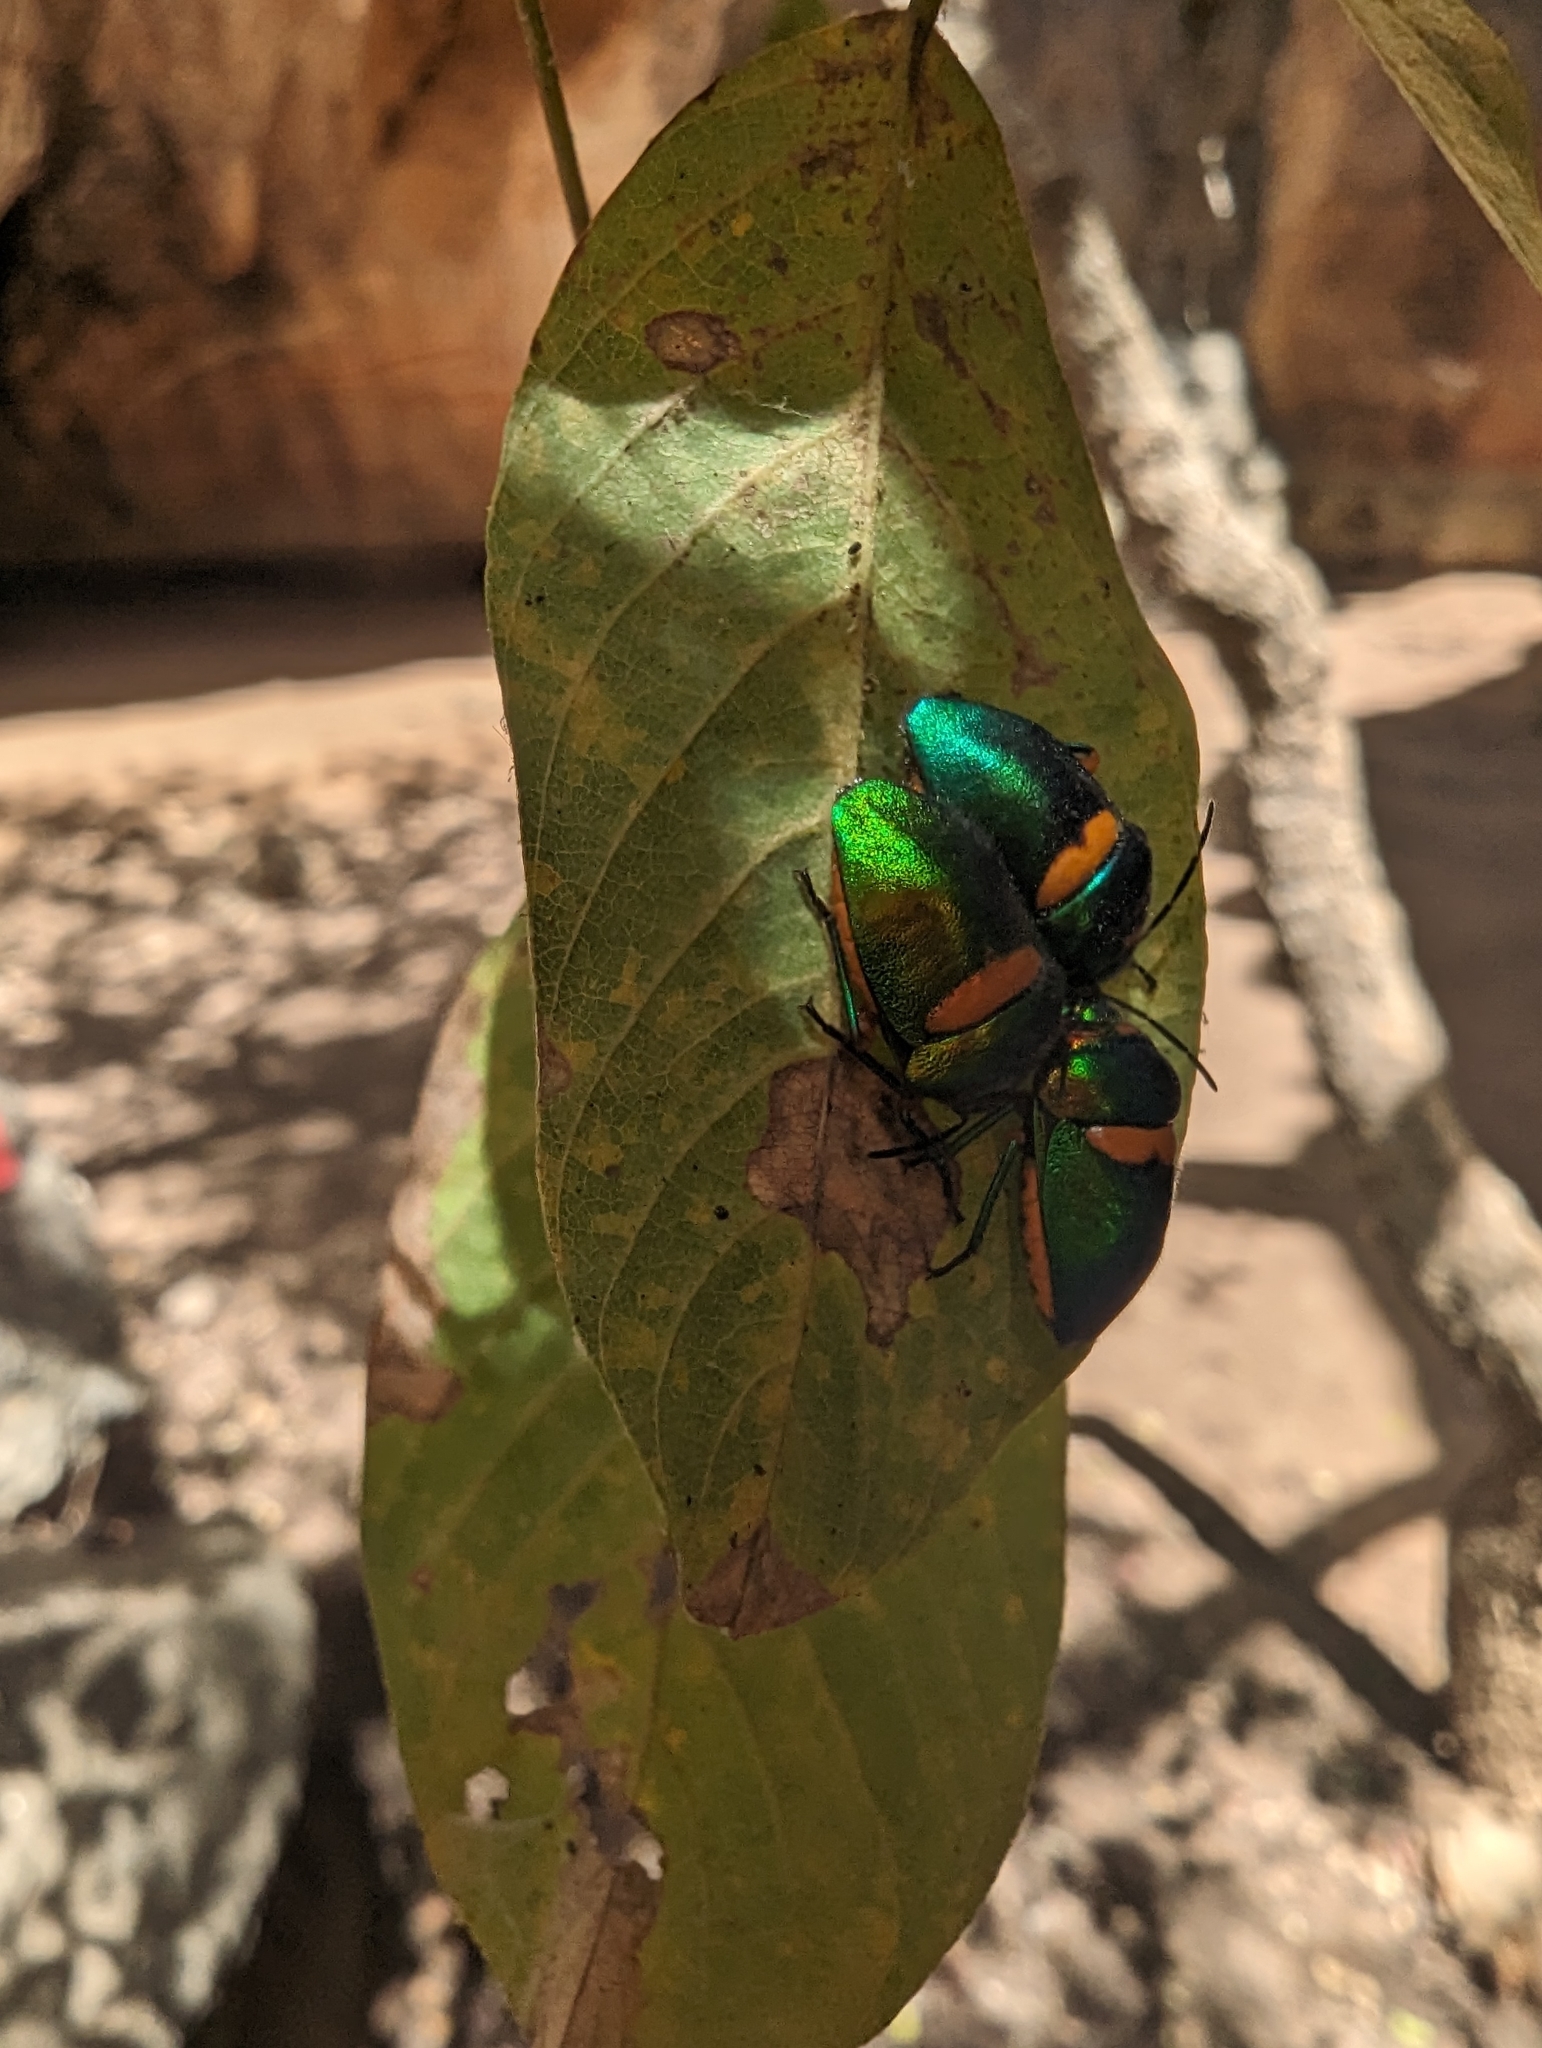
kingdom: Animalia
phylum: Arthropoda
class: Insecta
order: Hemiptera
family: Scutelleridae
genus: Lampromicra
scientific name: Lampromicra senator
